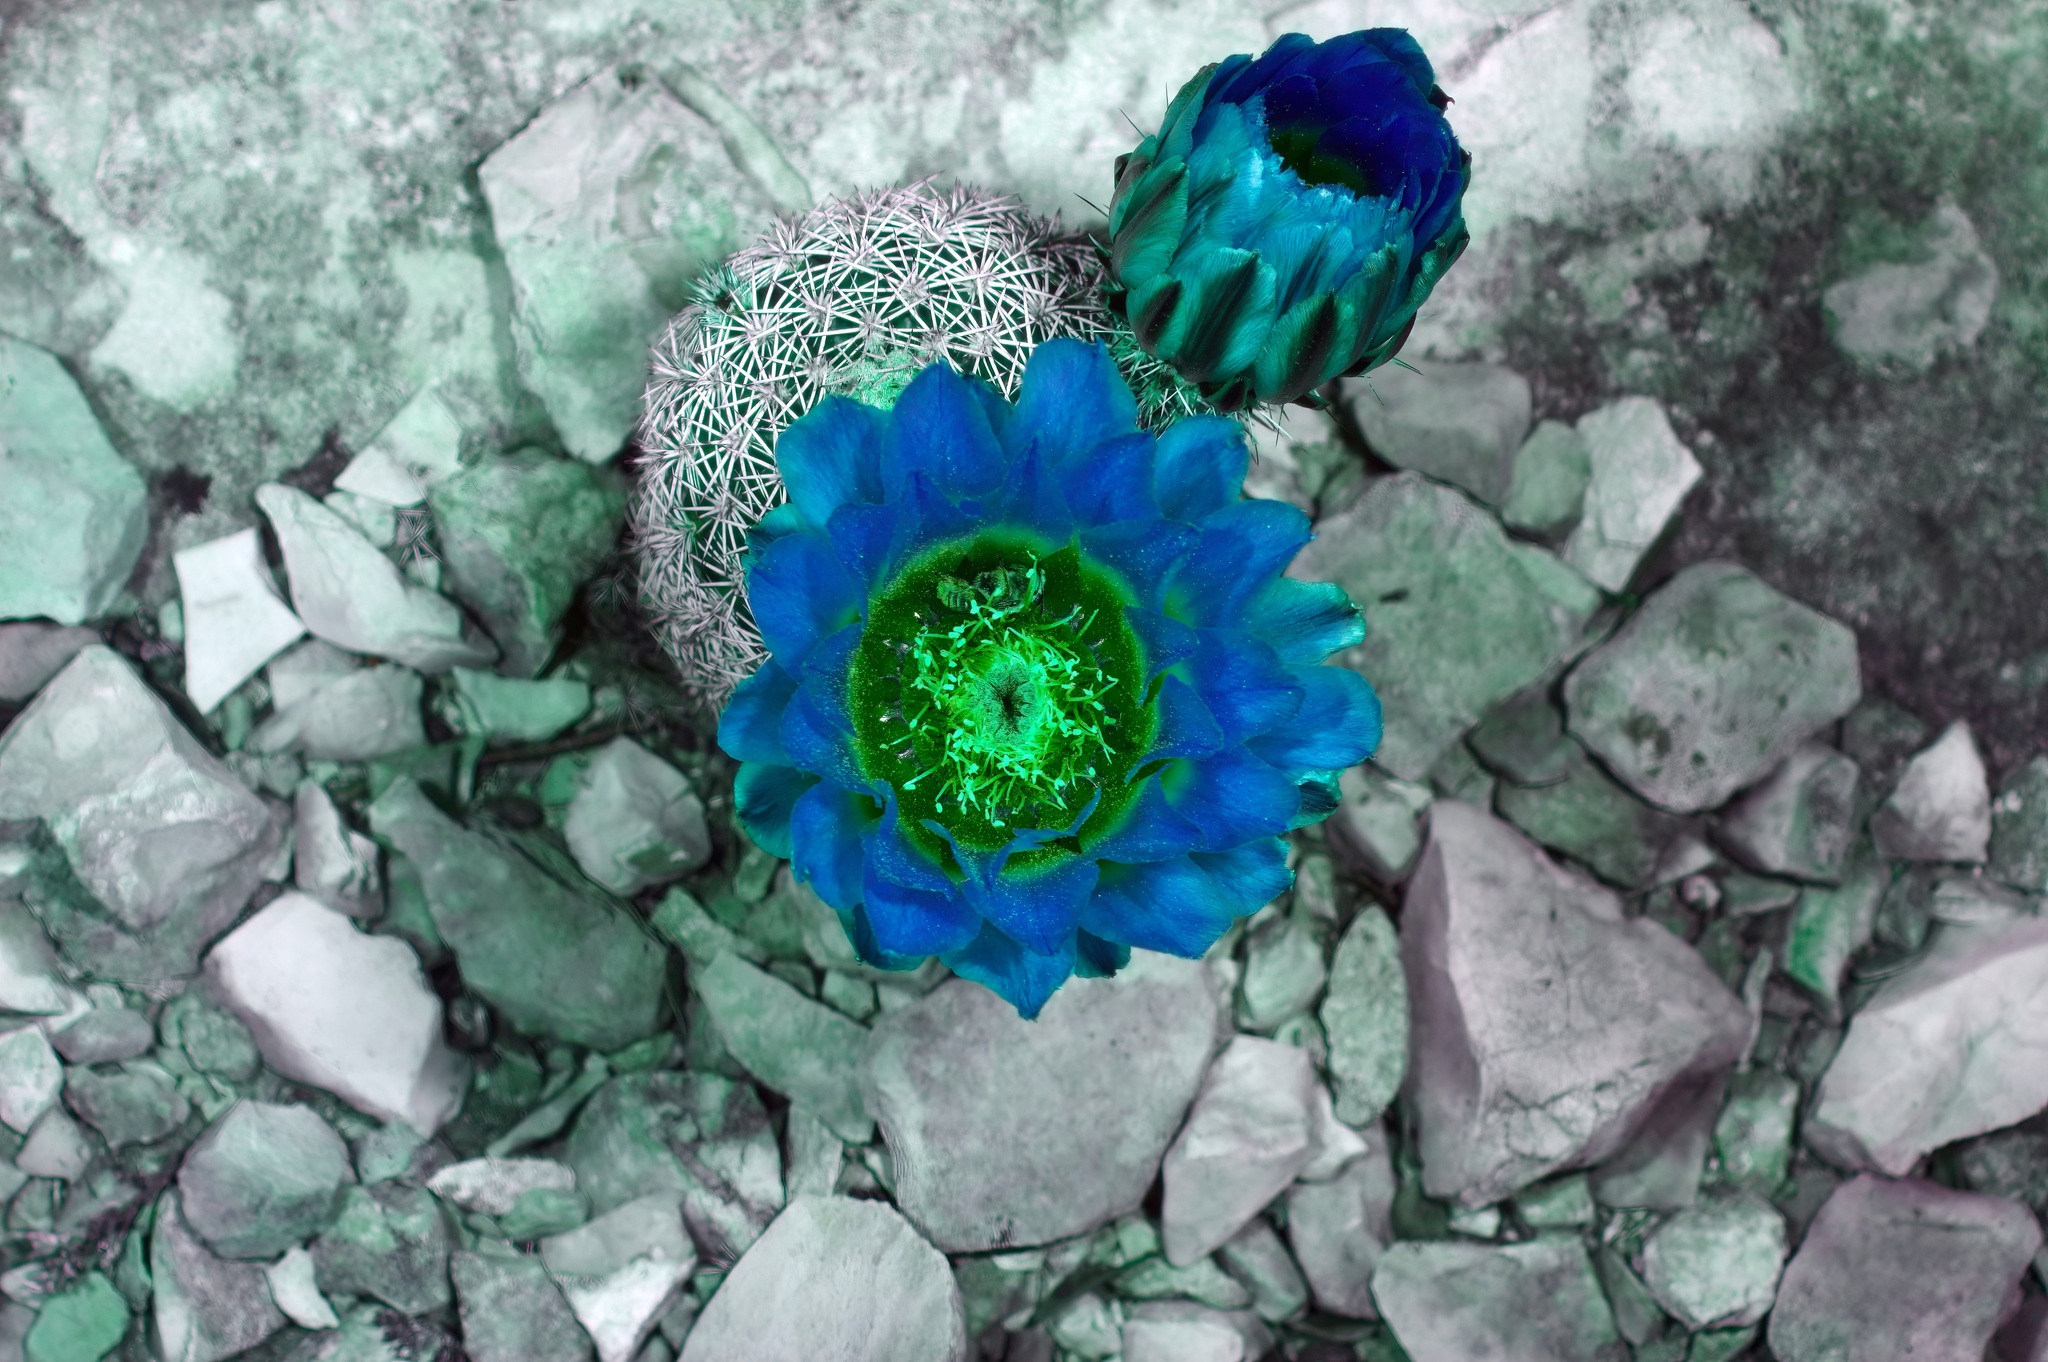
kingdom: Plantae
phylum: Tracheophyta
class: Magnoliopsida
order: Caryophyllales
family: Cactaceae
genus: Echinocereus
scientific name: Echinocereus pectinatus
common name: Rainbow cactus
